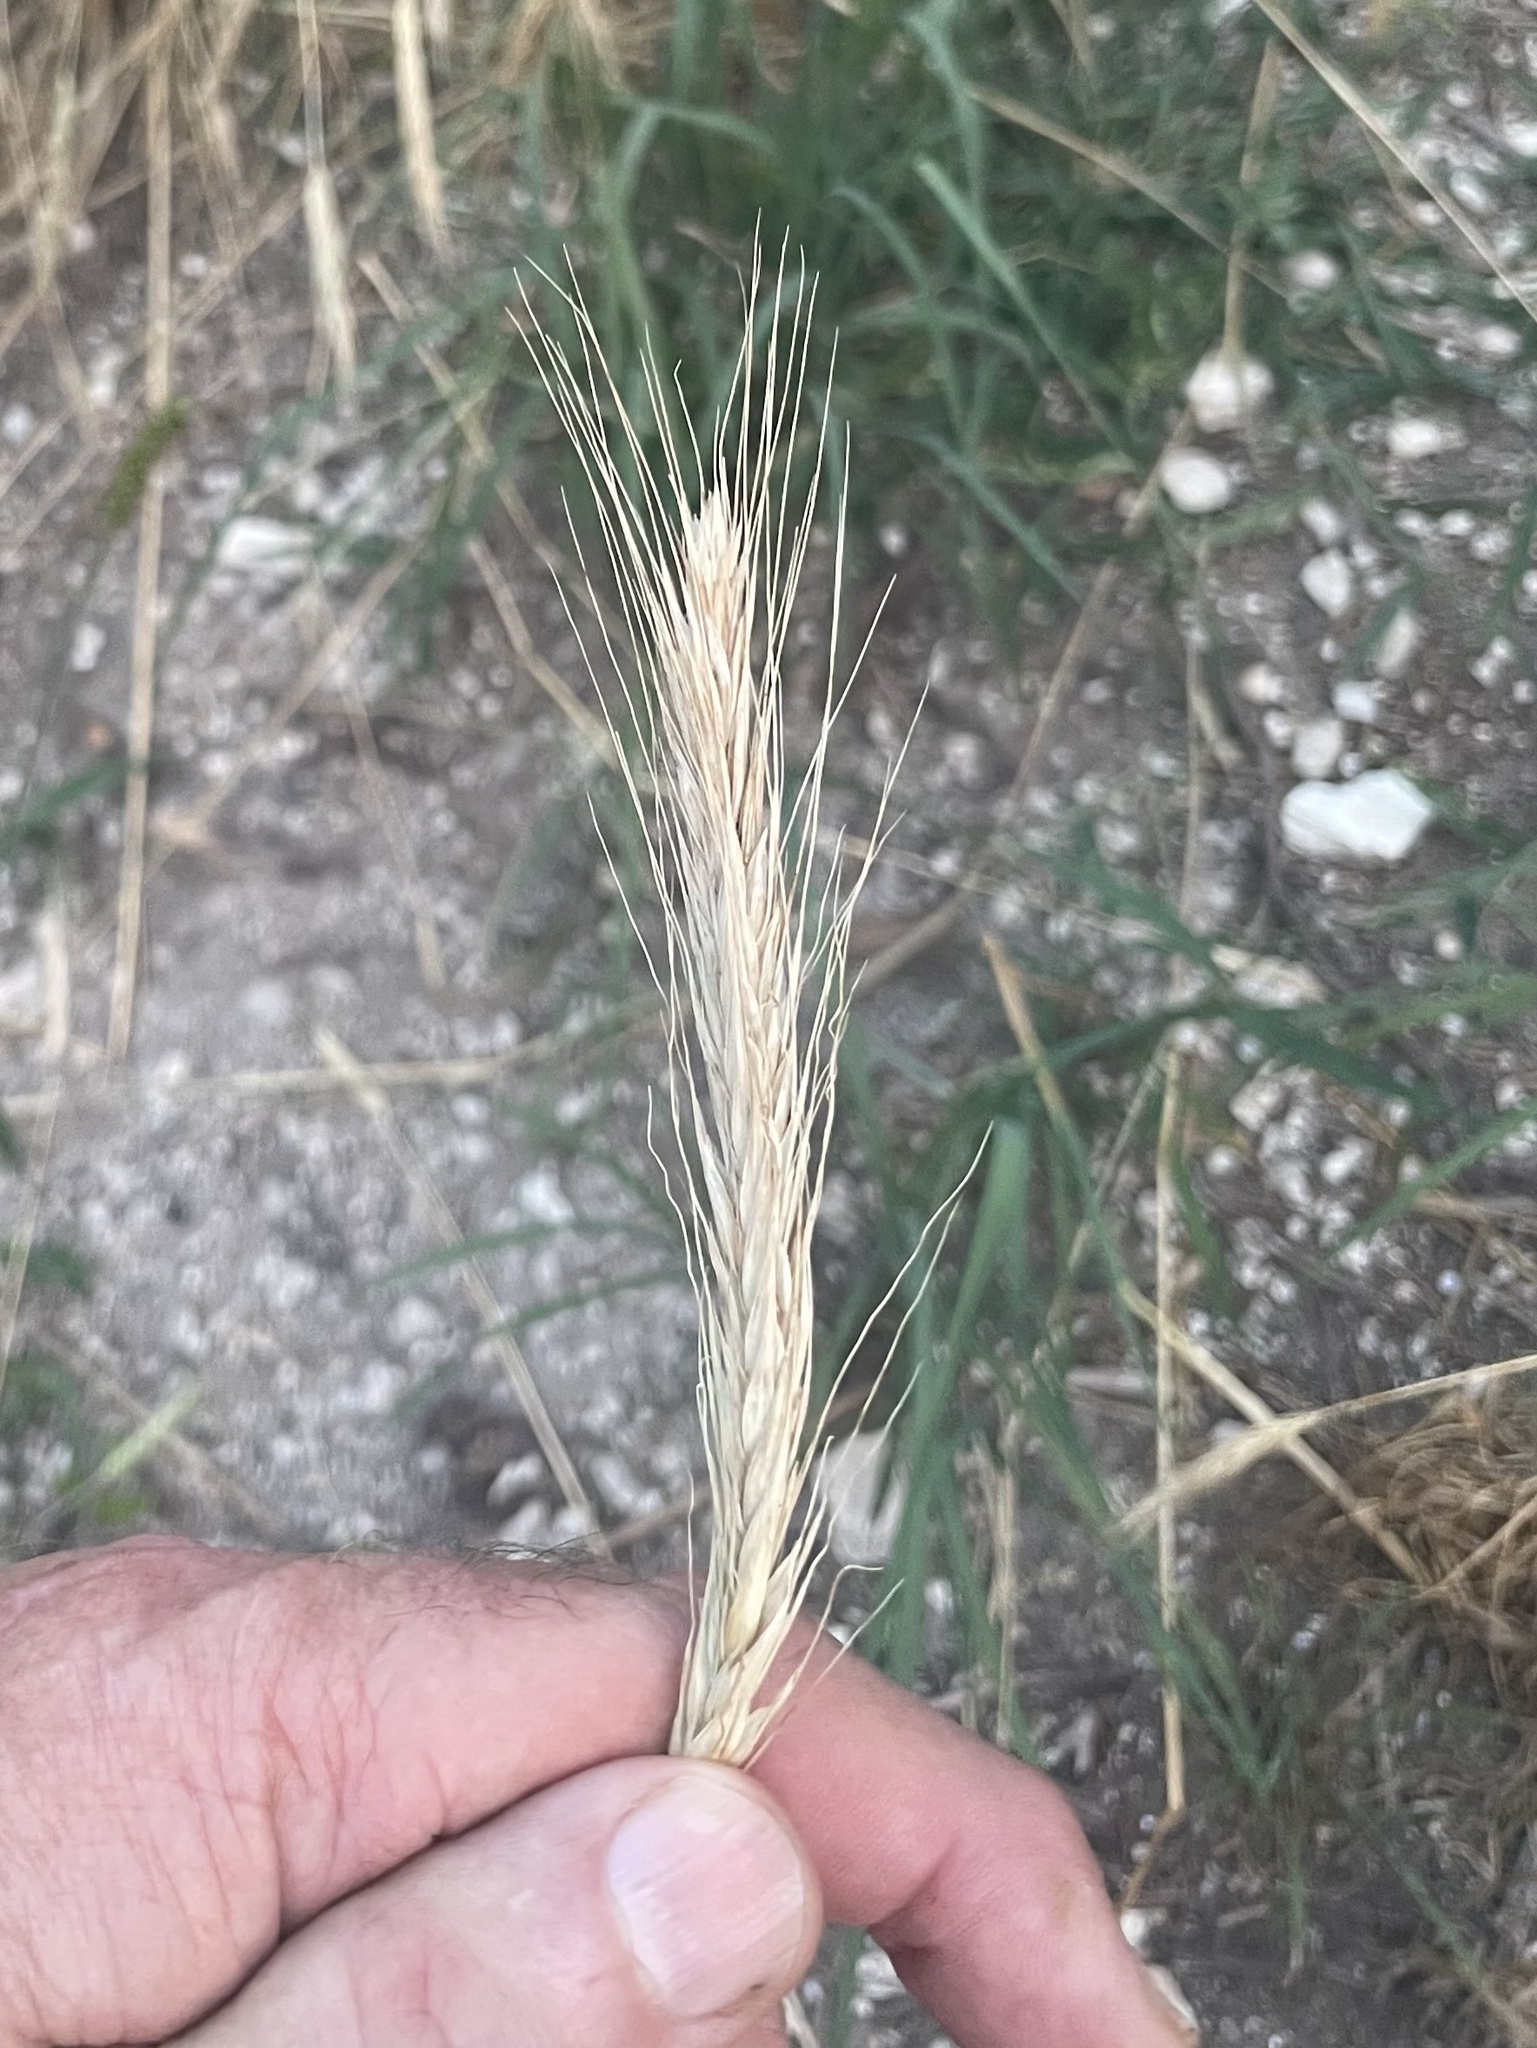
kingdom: Plantae
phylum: Tracheophyta
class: Liliopsida
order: Poales
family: Poaceae
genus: Secale
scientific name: Secale cereale
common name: Rye
